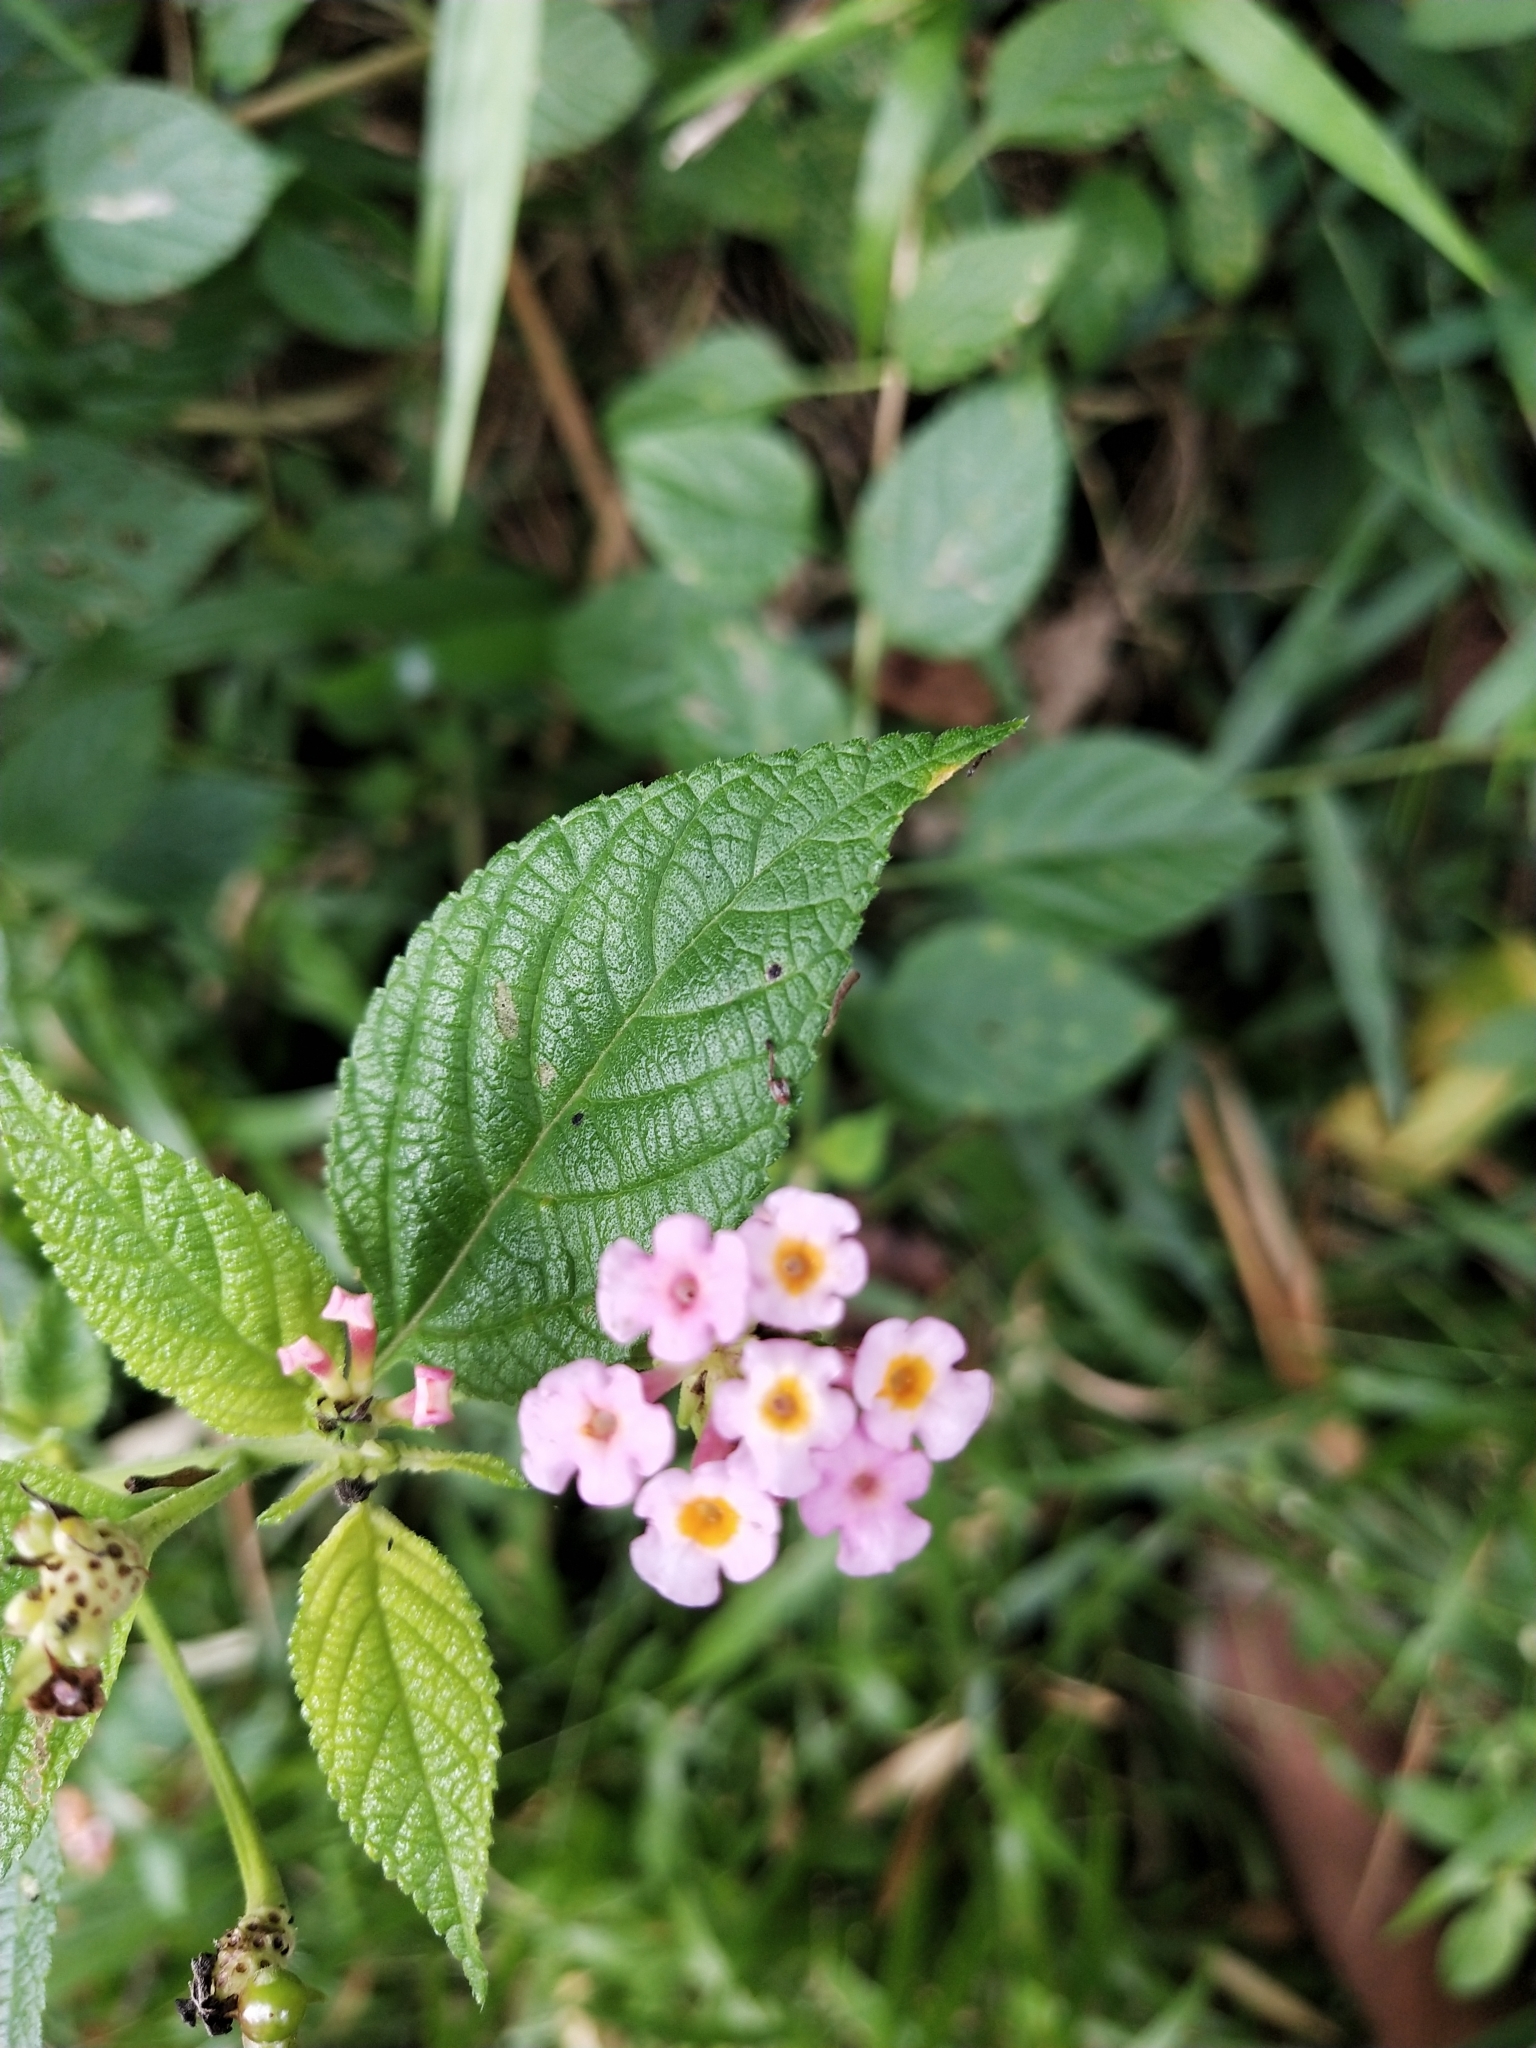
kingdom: Plantae
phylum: Tracheophyta
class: Magnoliopsida
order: Lamiales
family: Verbenaceae
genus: Lantana
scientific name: Lantana camara
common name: Lantana
